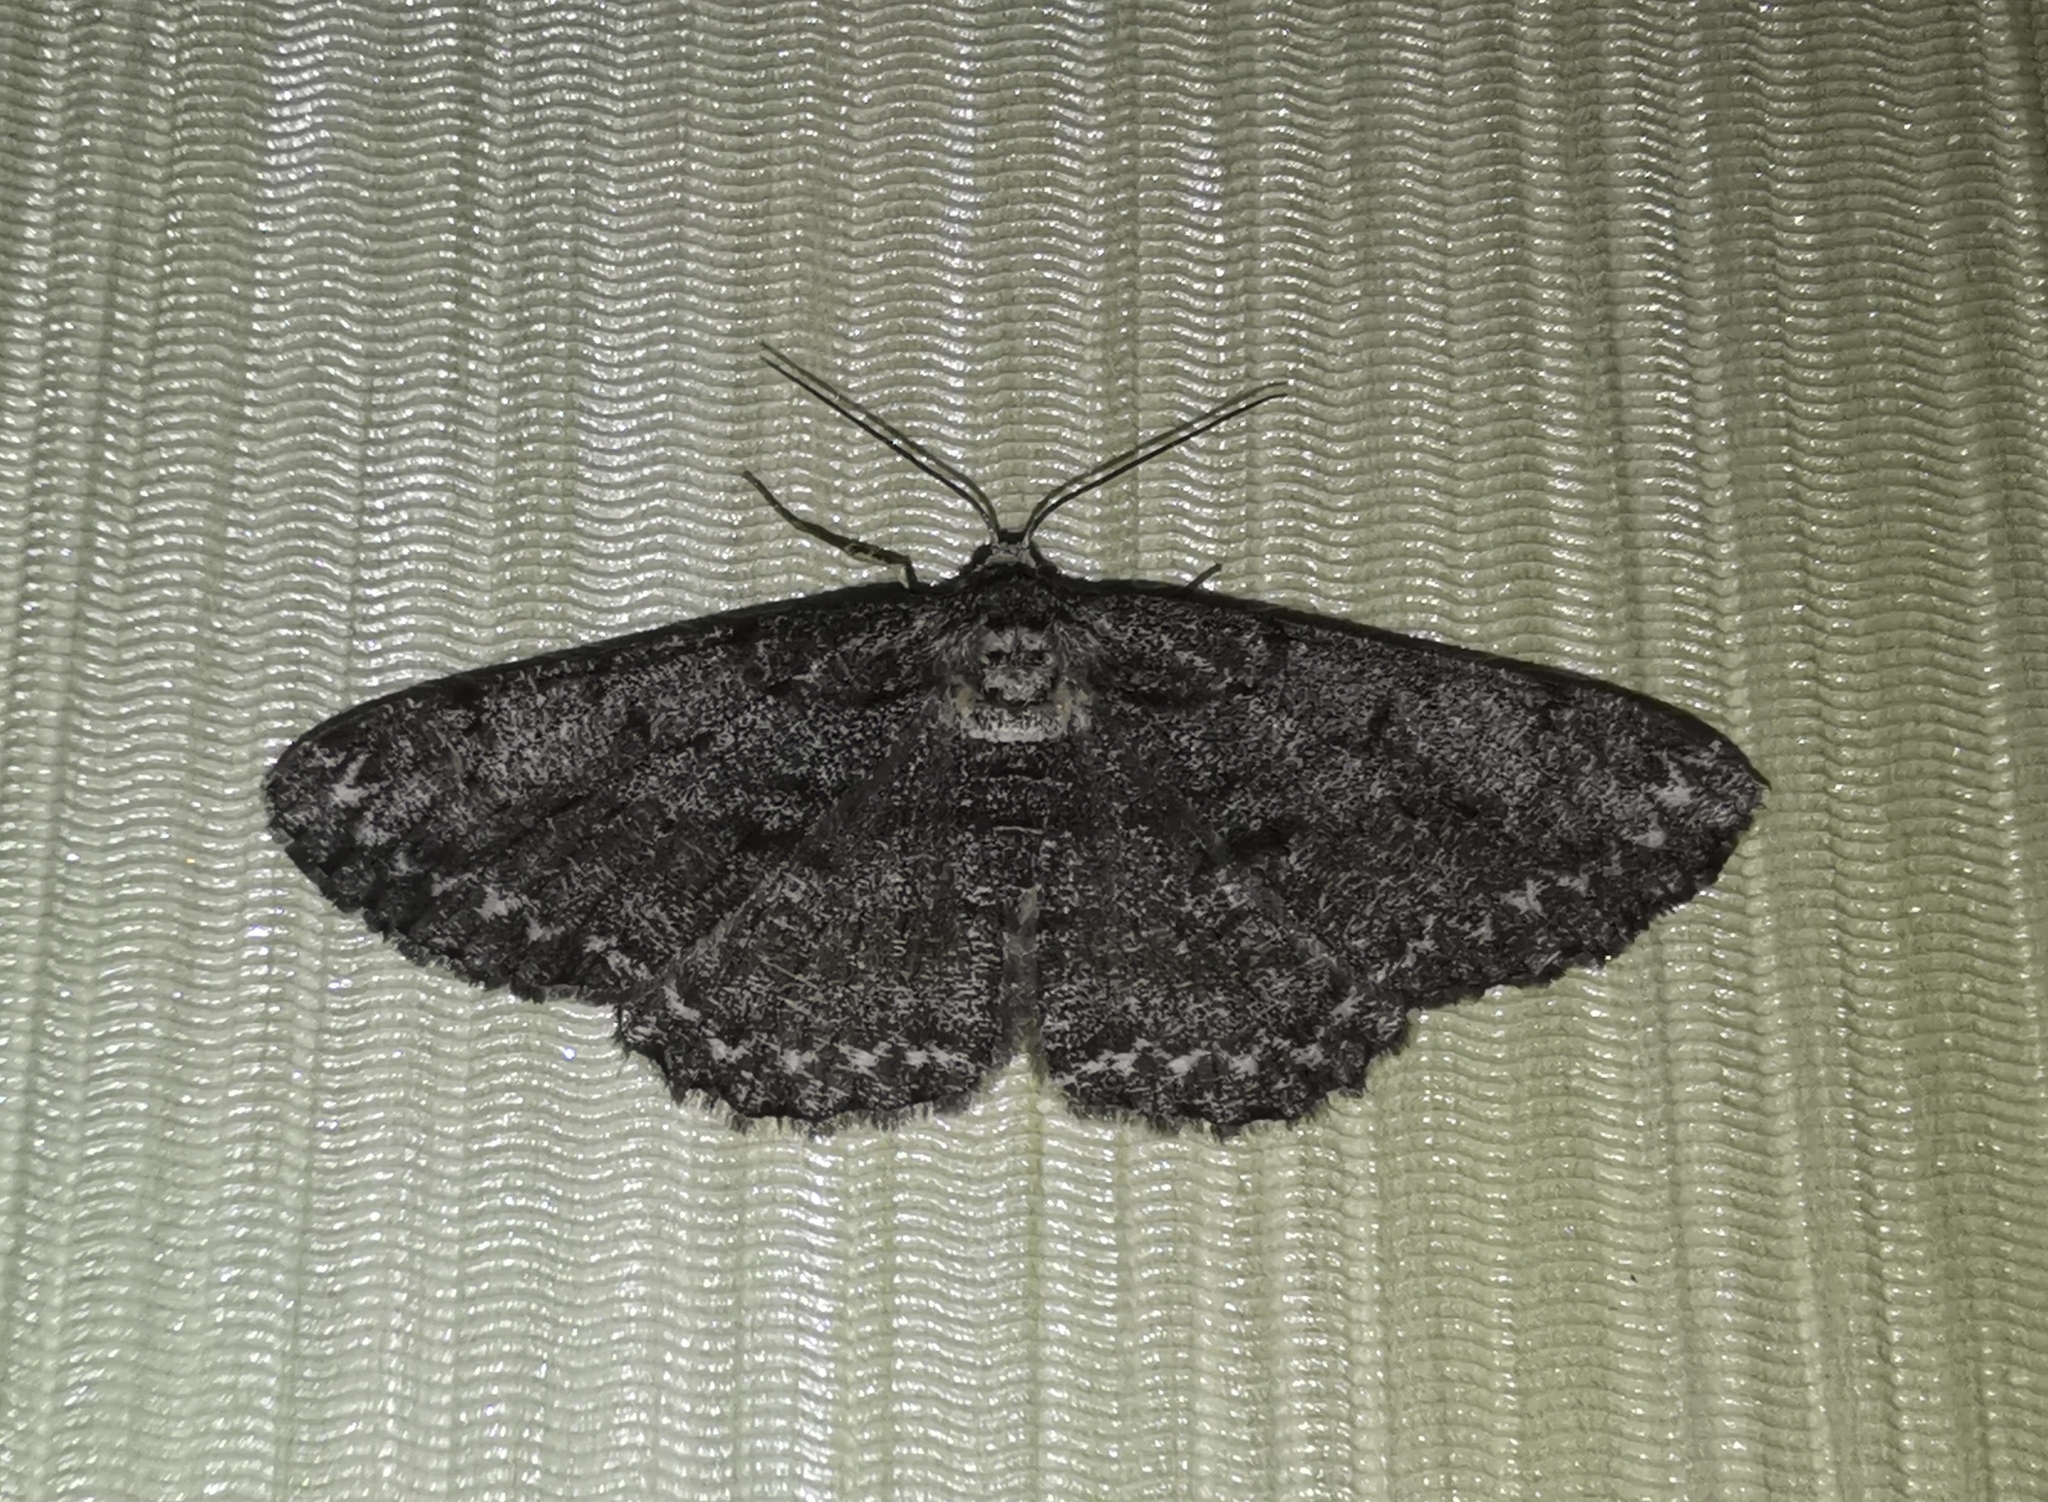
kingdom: Animalia
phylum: Arthropoda
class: Insecta
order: Lepidoptera
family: Geometridae
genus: Hypomecis
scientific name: Hypomecis roboraria
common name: Great oak beauty
